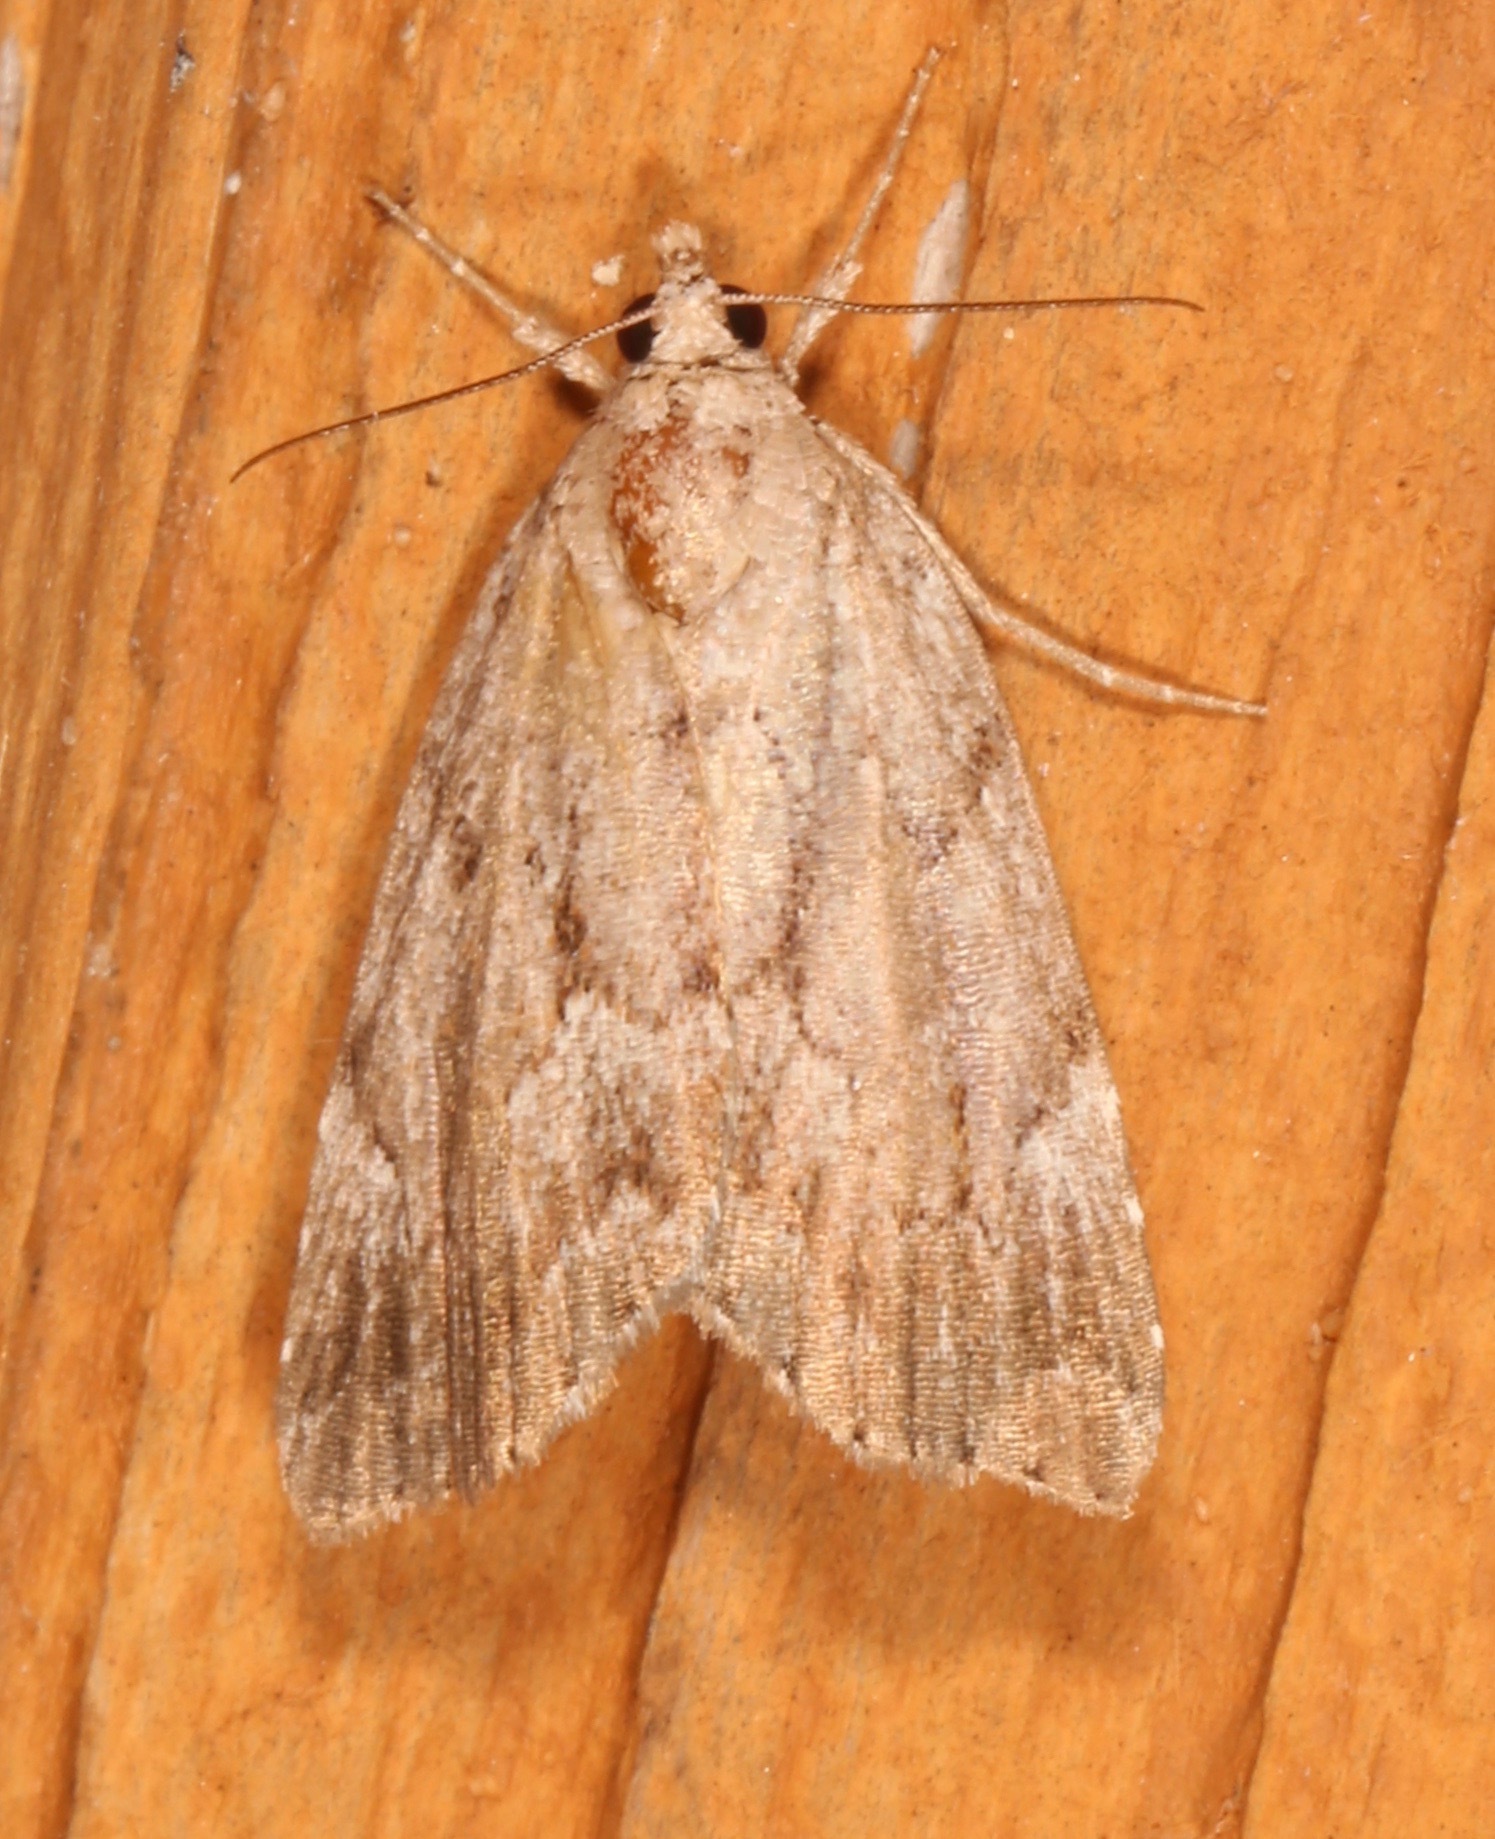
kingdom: Animalia
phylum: Arthropoda
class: Insecta
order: Lepidoptera
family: Erebidae
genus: Cutina
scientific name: Cutina albopunctella
